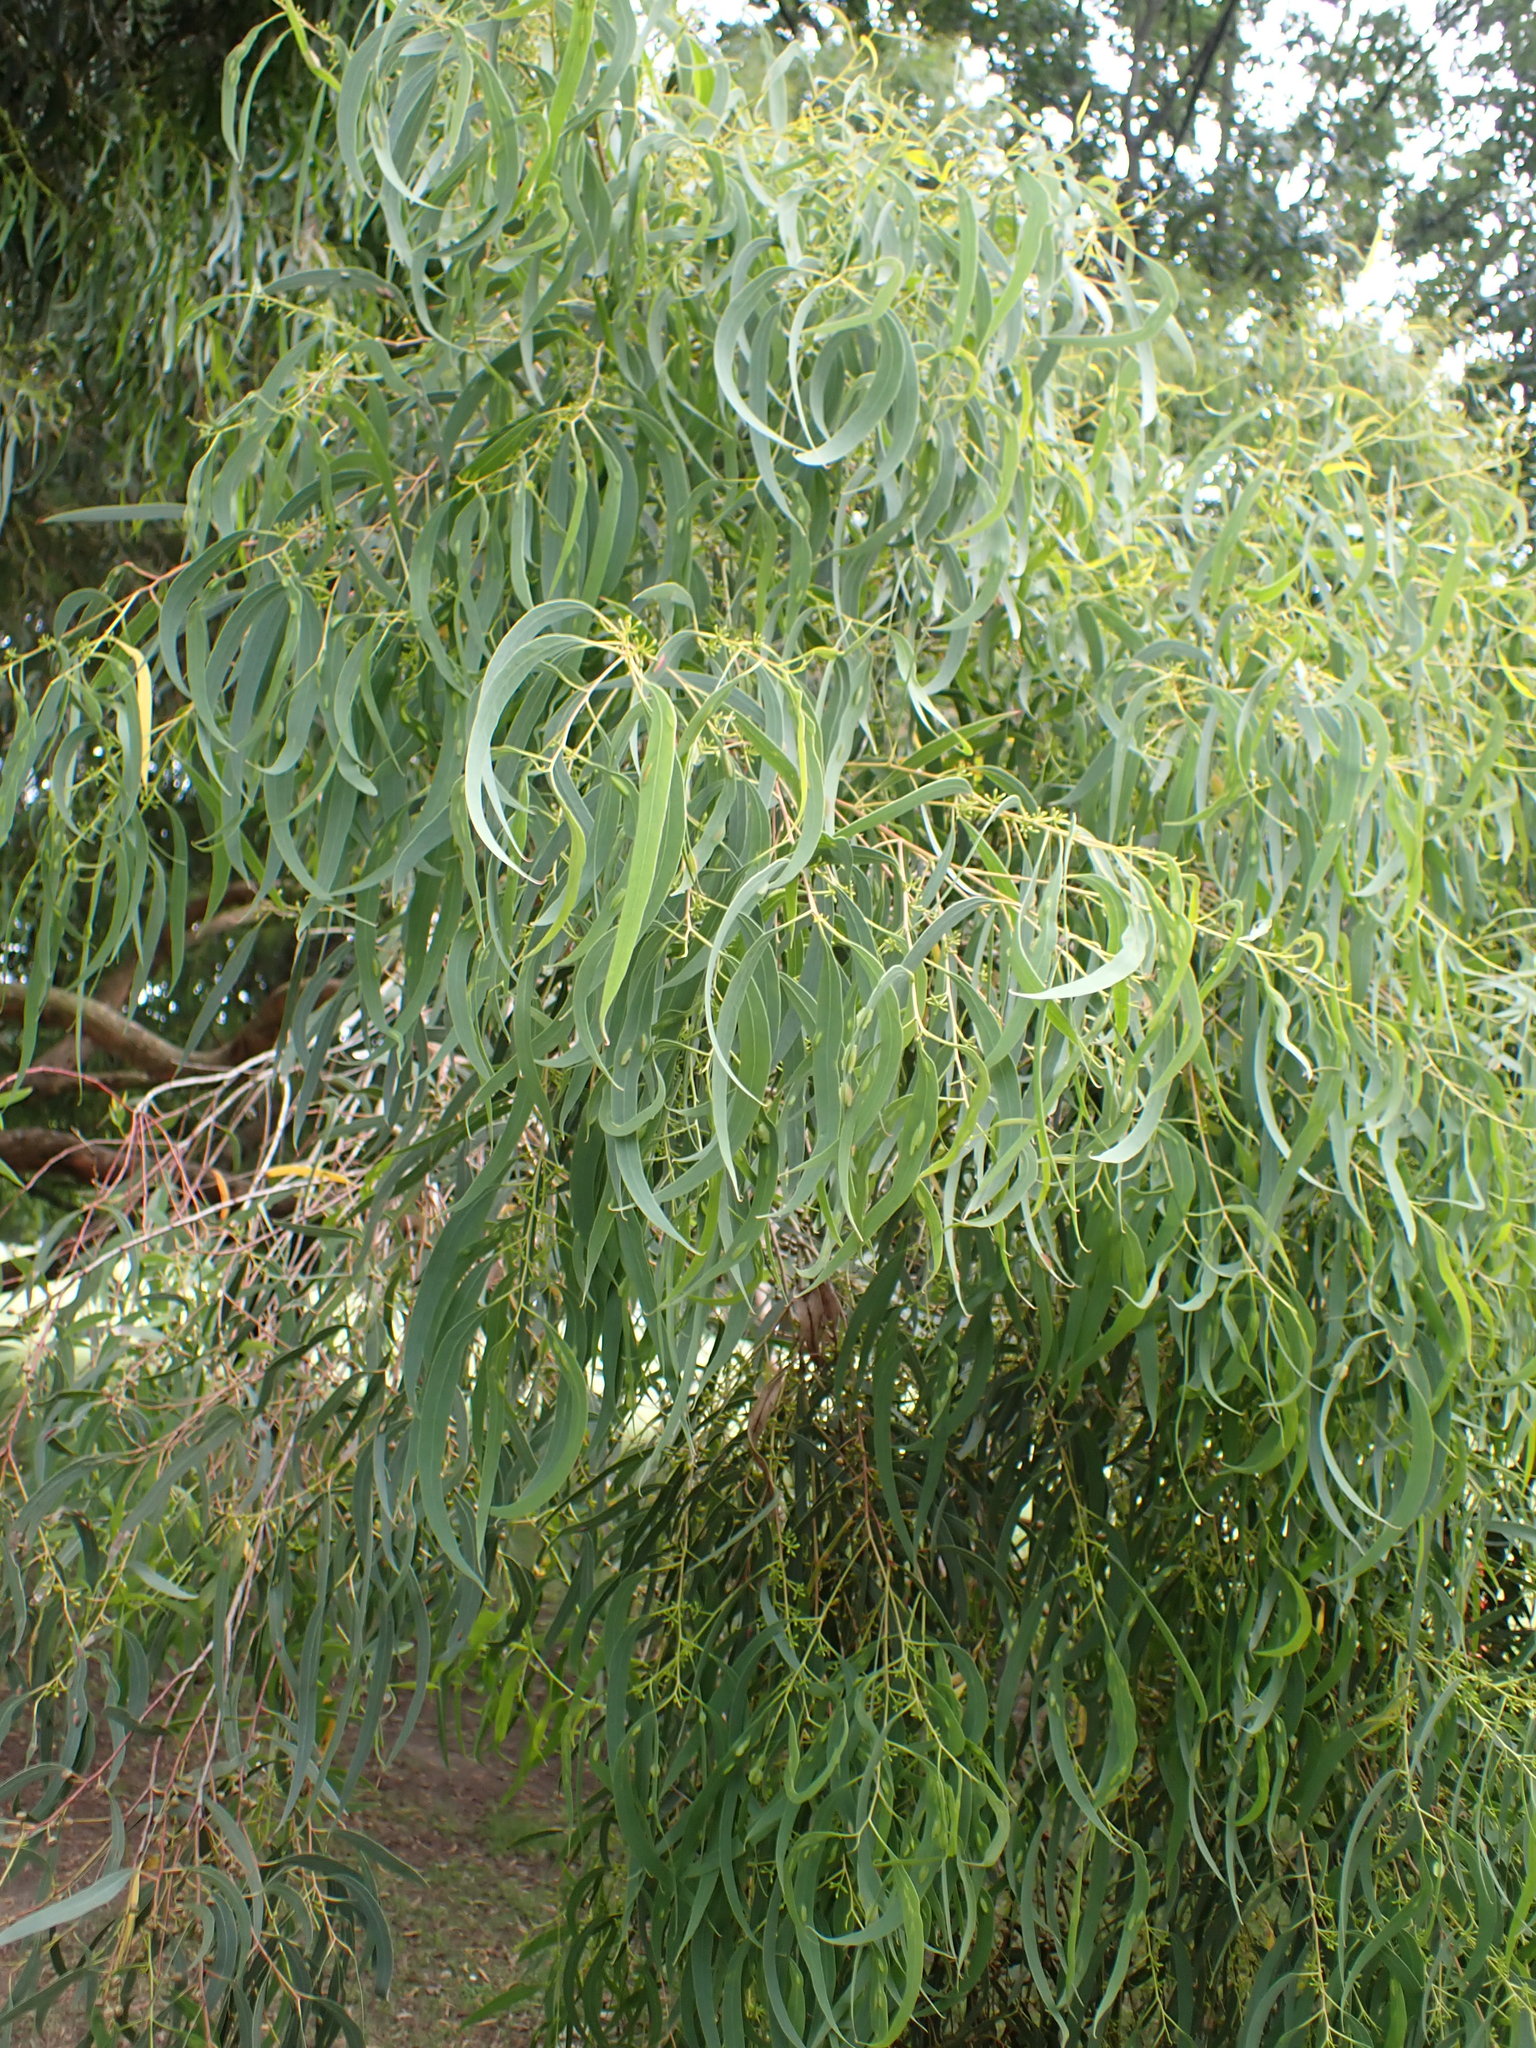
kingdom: Animalia
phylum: Arthropoda
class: Insecta
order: Hymenoptera
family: Pteromalidae
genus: Nambouria
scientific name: Nambouria xanthops
